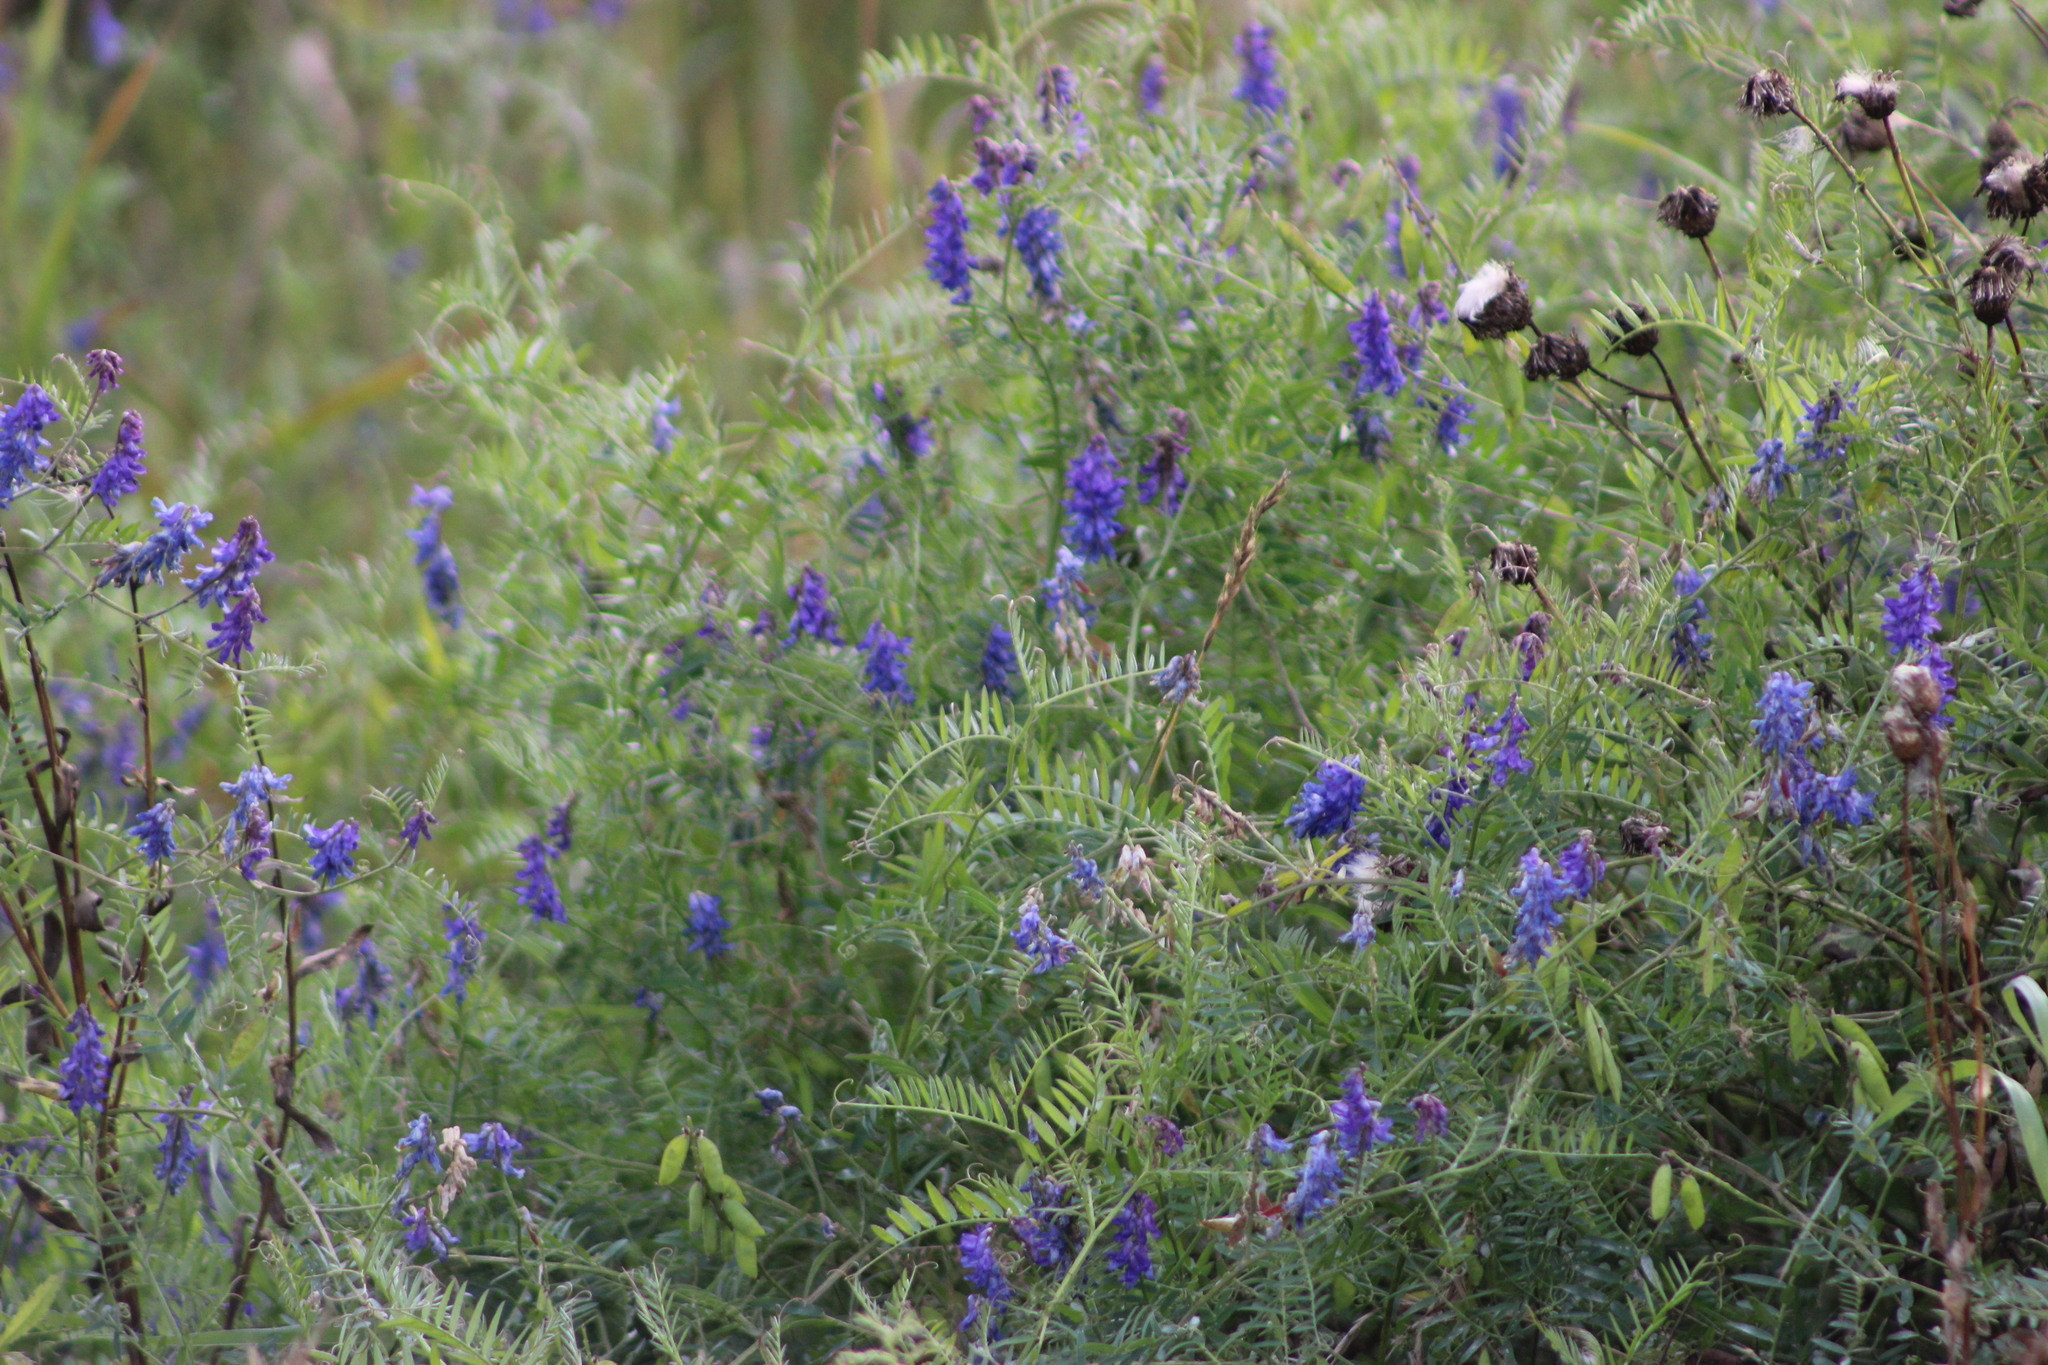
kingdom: Plantae
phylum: Tracheophyta
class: Magnoliopsida
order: Fabales
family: Fabaceae
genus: Vicia
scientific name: Vicia cracca
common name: Bird vetch
